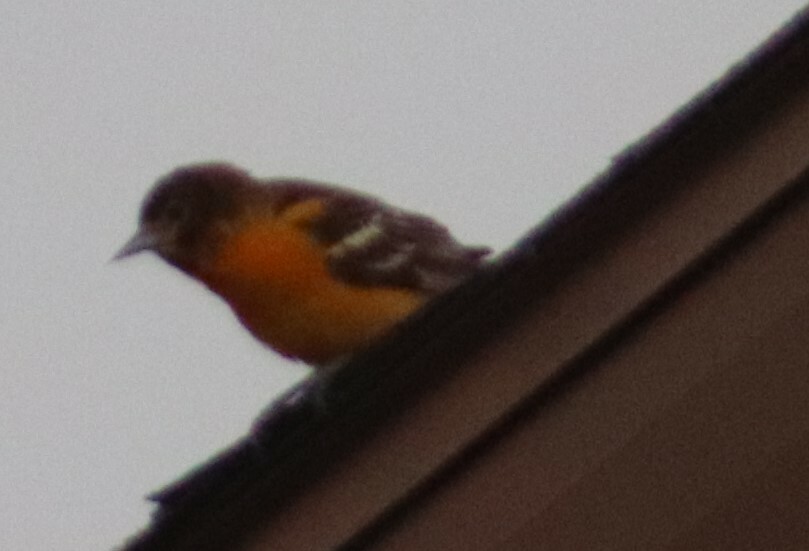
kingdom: Animalia
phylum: Chordata
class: Aves
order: Passeriformes
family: Icteridae
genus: Icterus
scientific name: Icterus galbula
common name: Baltimore oriole
